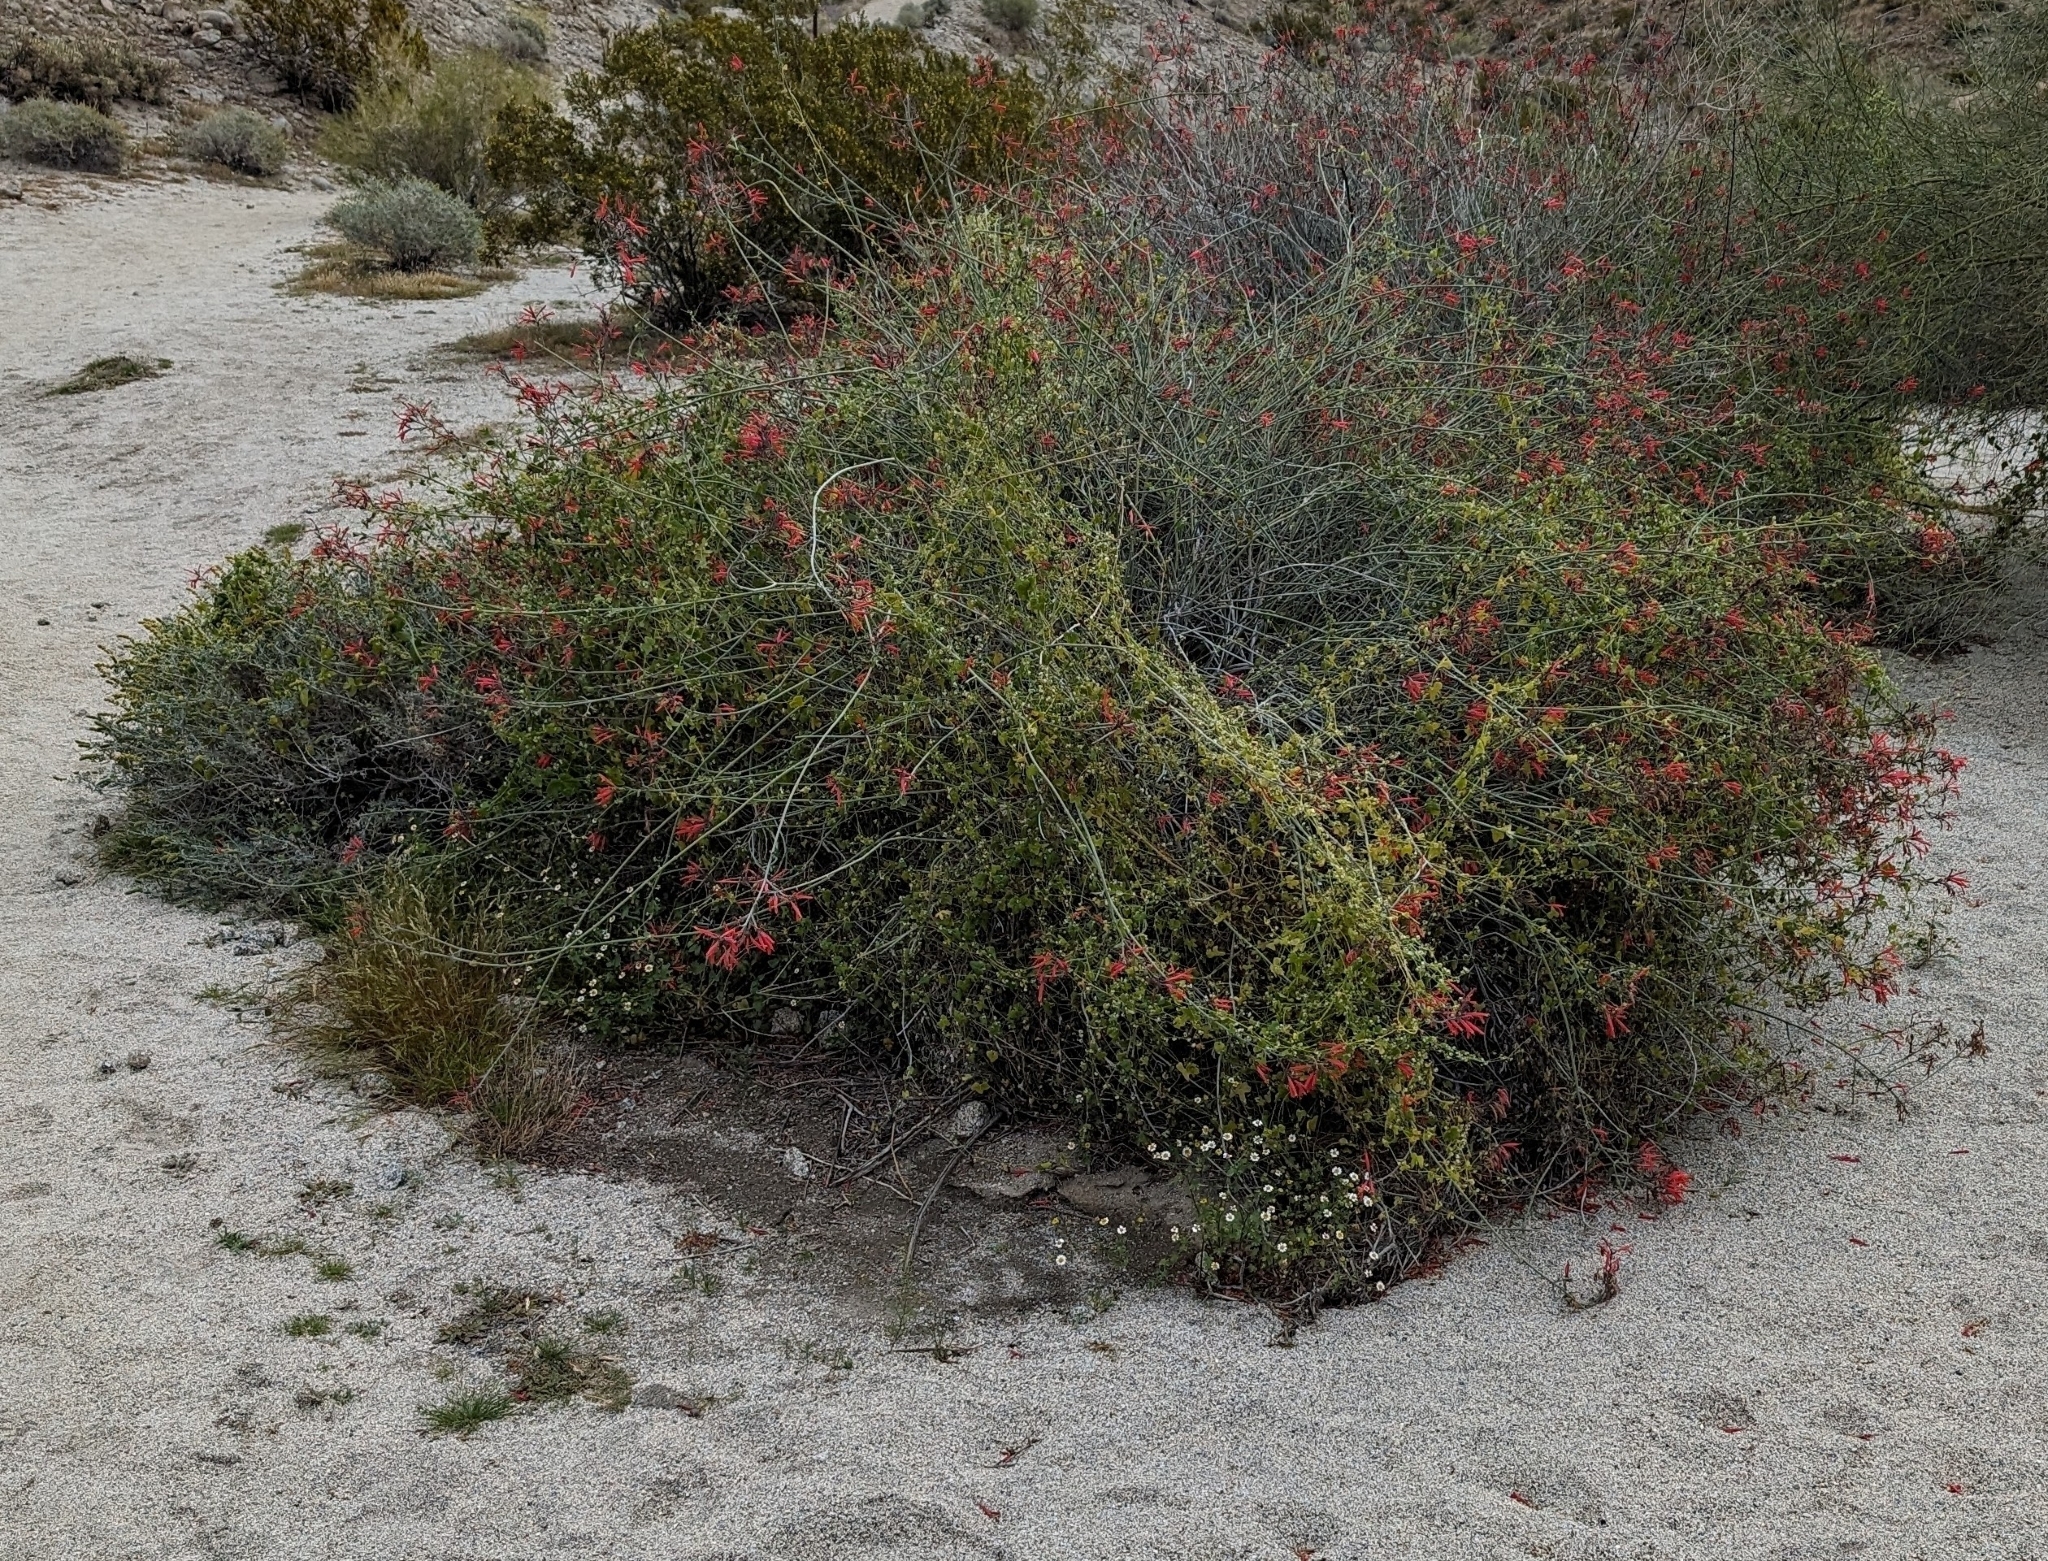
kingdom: Plantae
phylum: Tracheophyta
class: Magnoliopsida
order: Lamiales
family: Acanthaceae
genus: Justicia
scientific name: Justicia californica
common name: Chuparosa-honeysuckle
